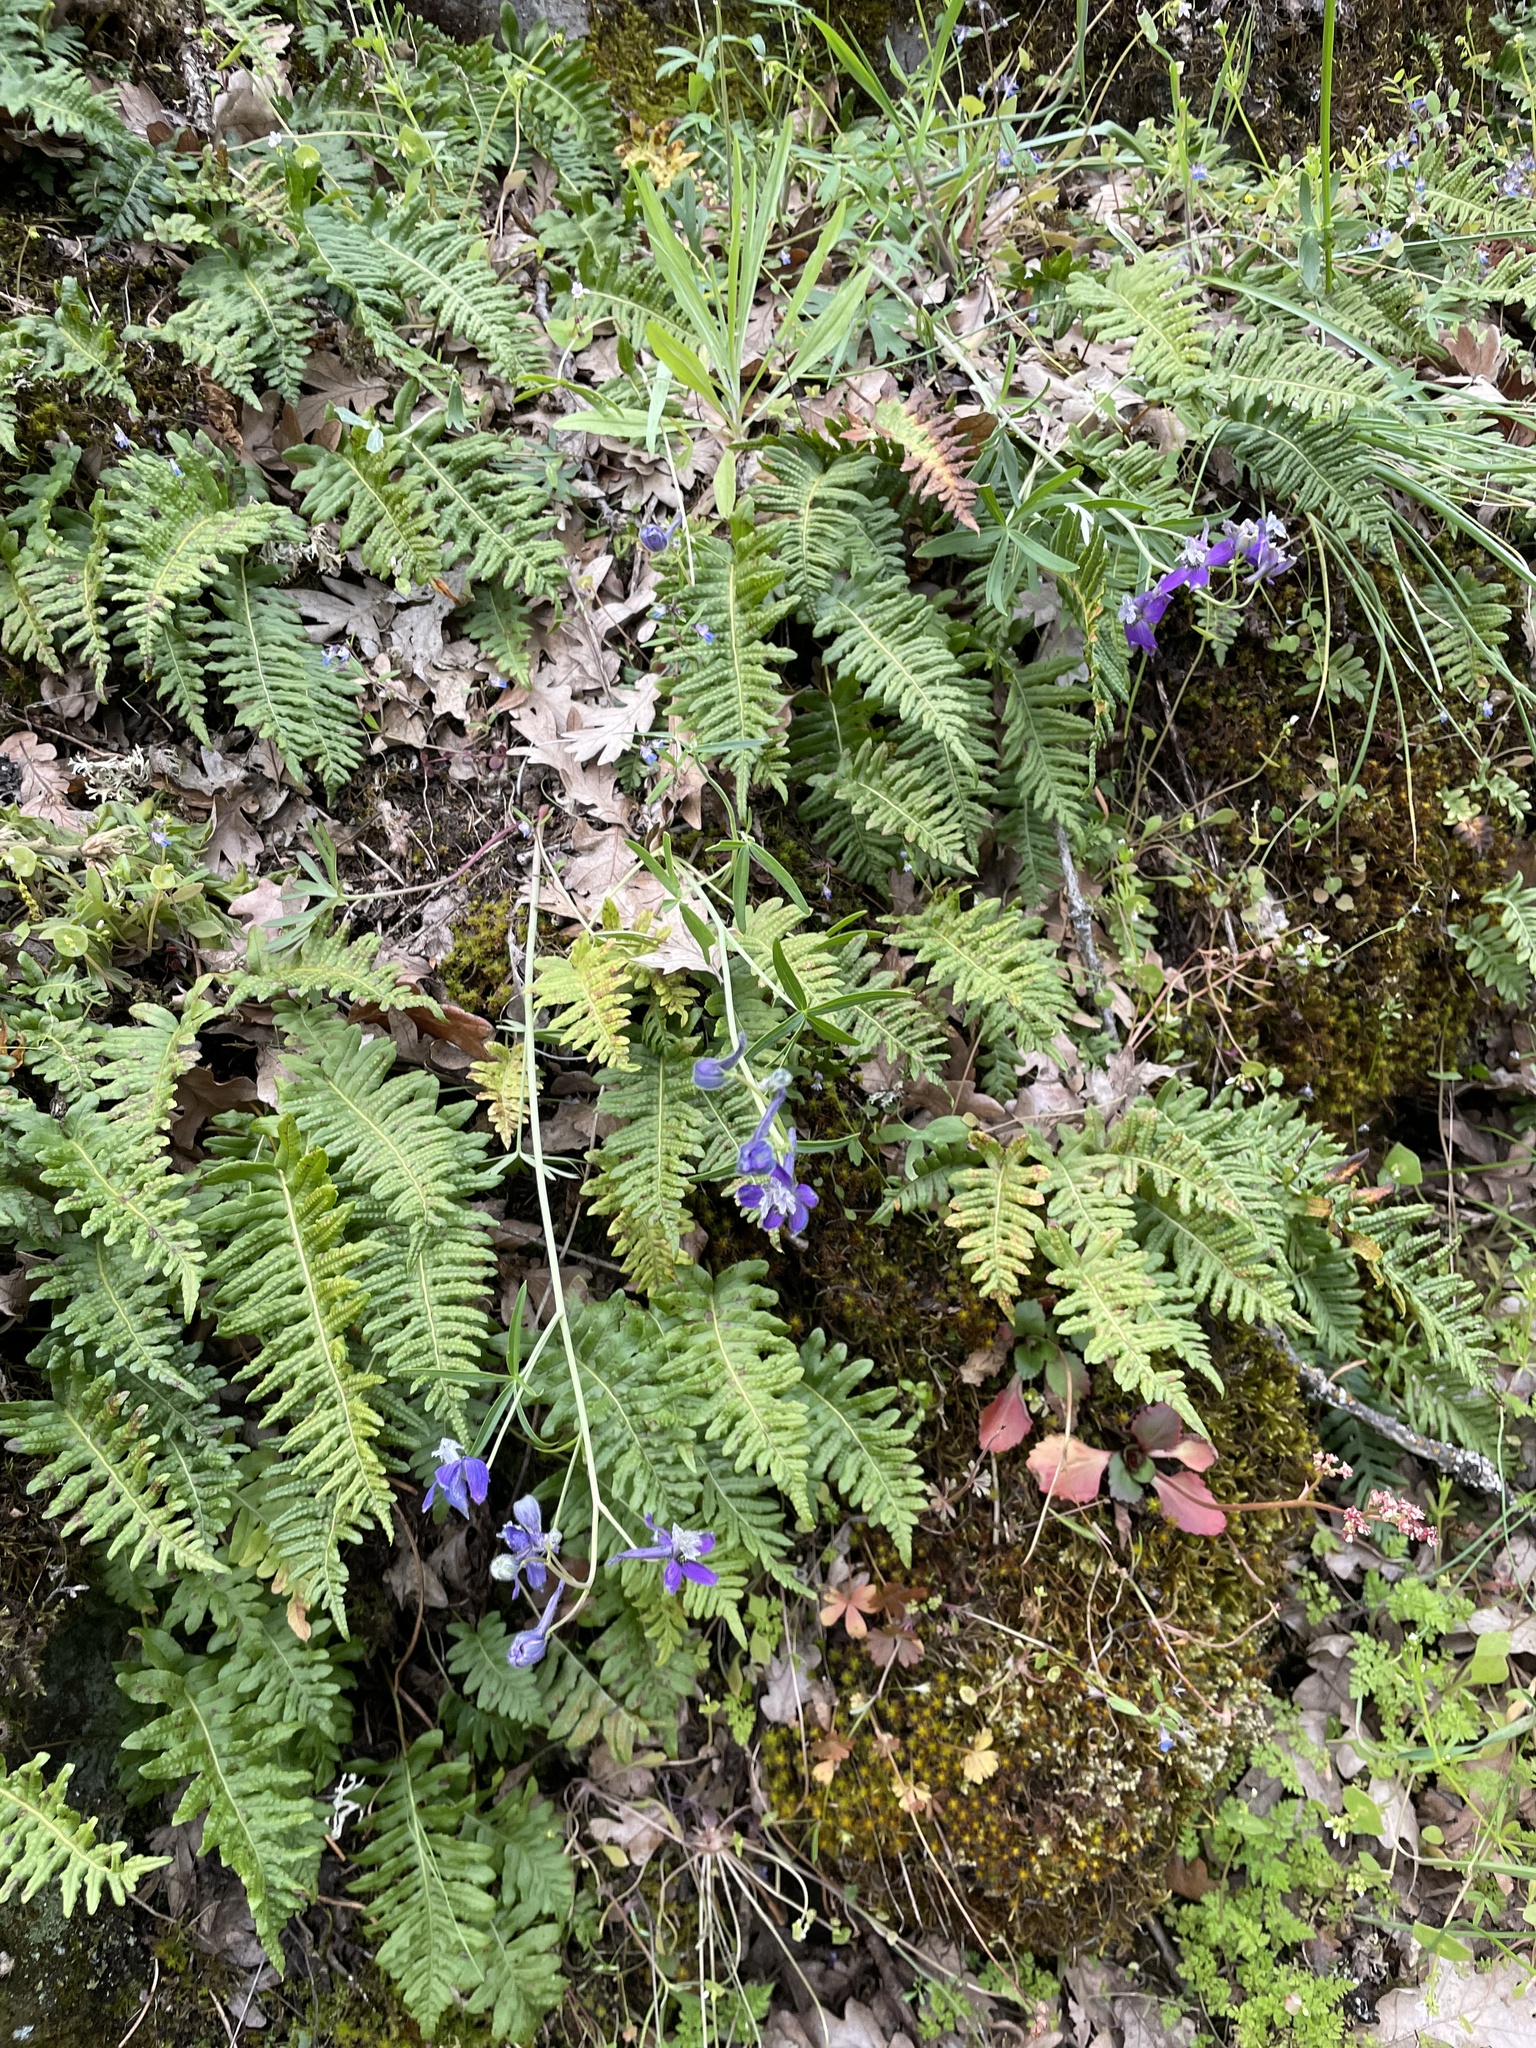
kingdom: Plantae
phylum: Tracheophyta
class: Magnoliopsida
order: Ranunculales
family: Ranunculaceae
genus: Delphinium
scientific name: Delphinium nuttallianum
